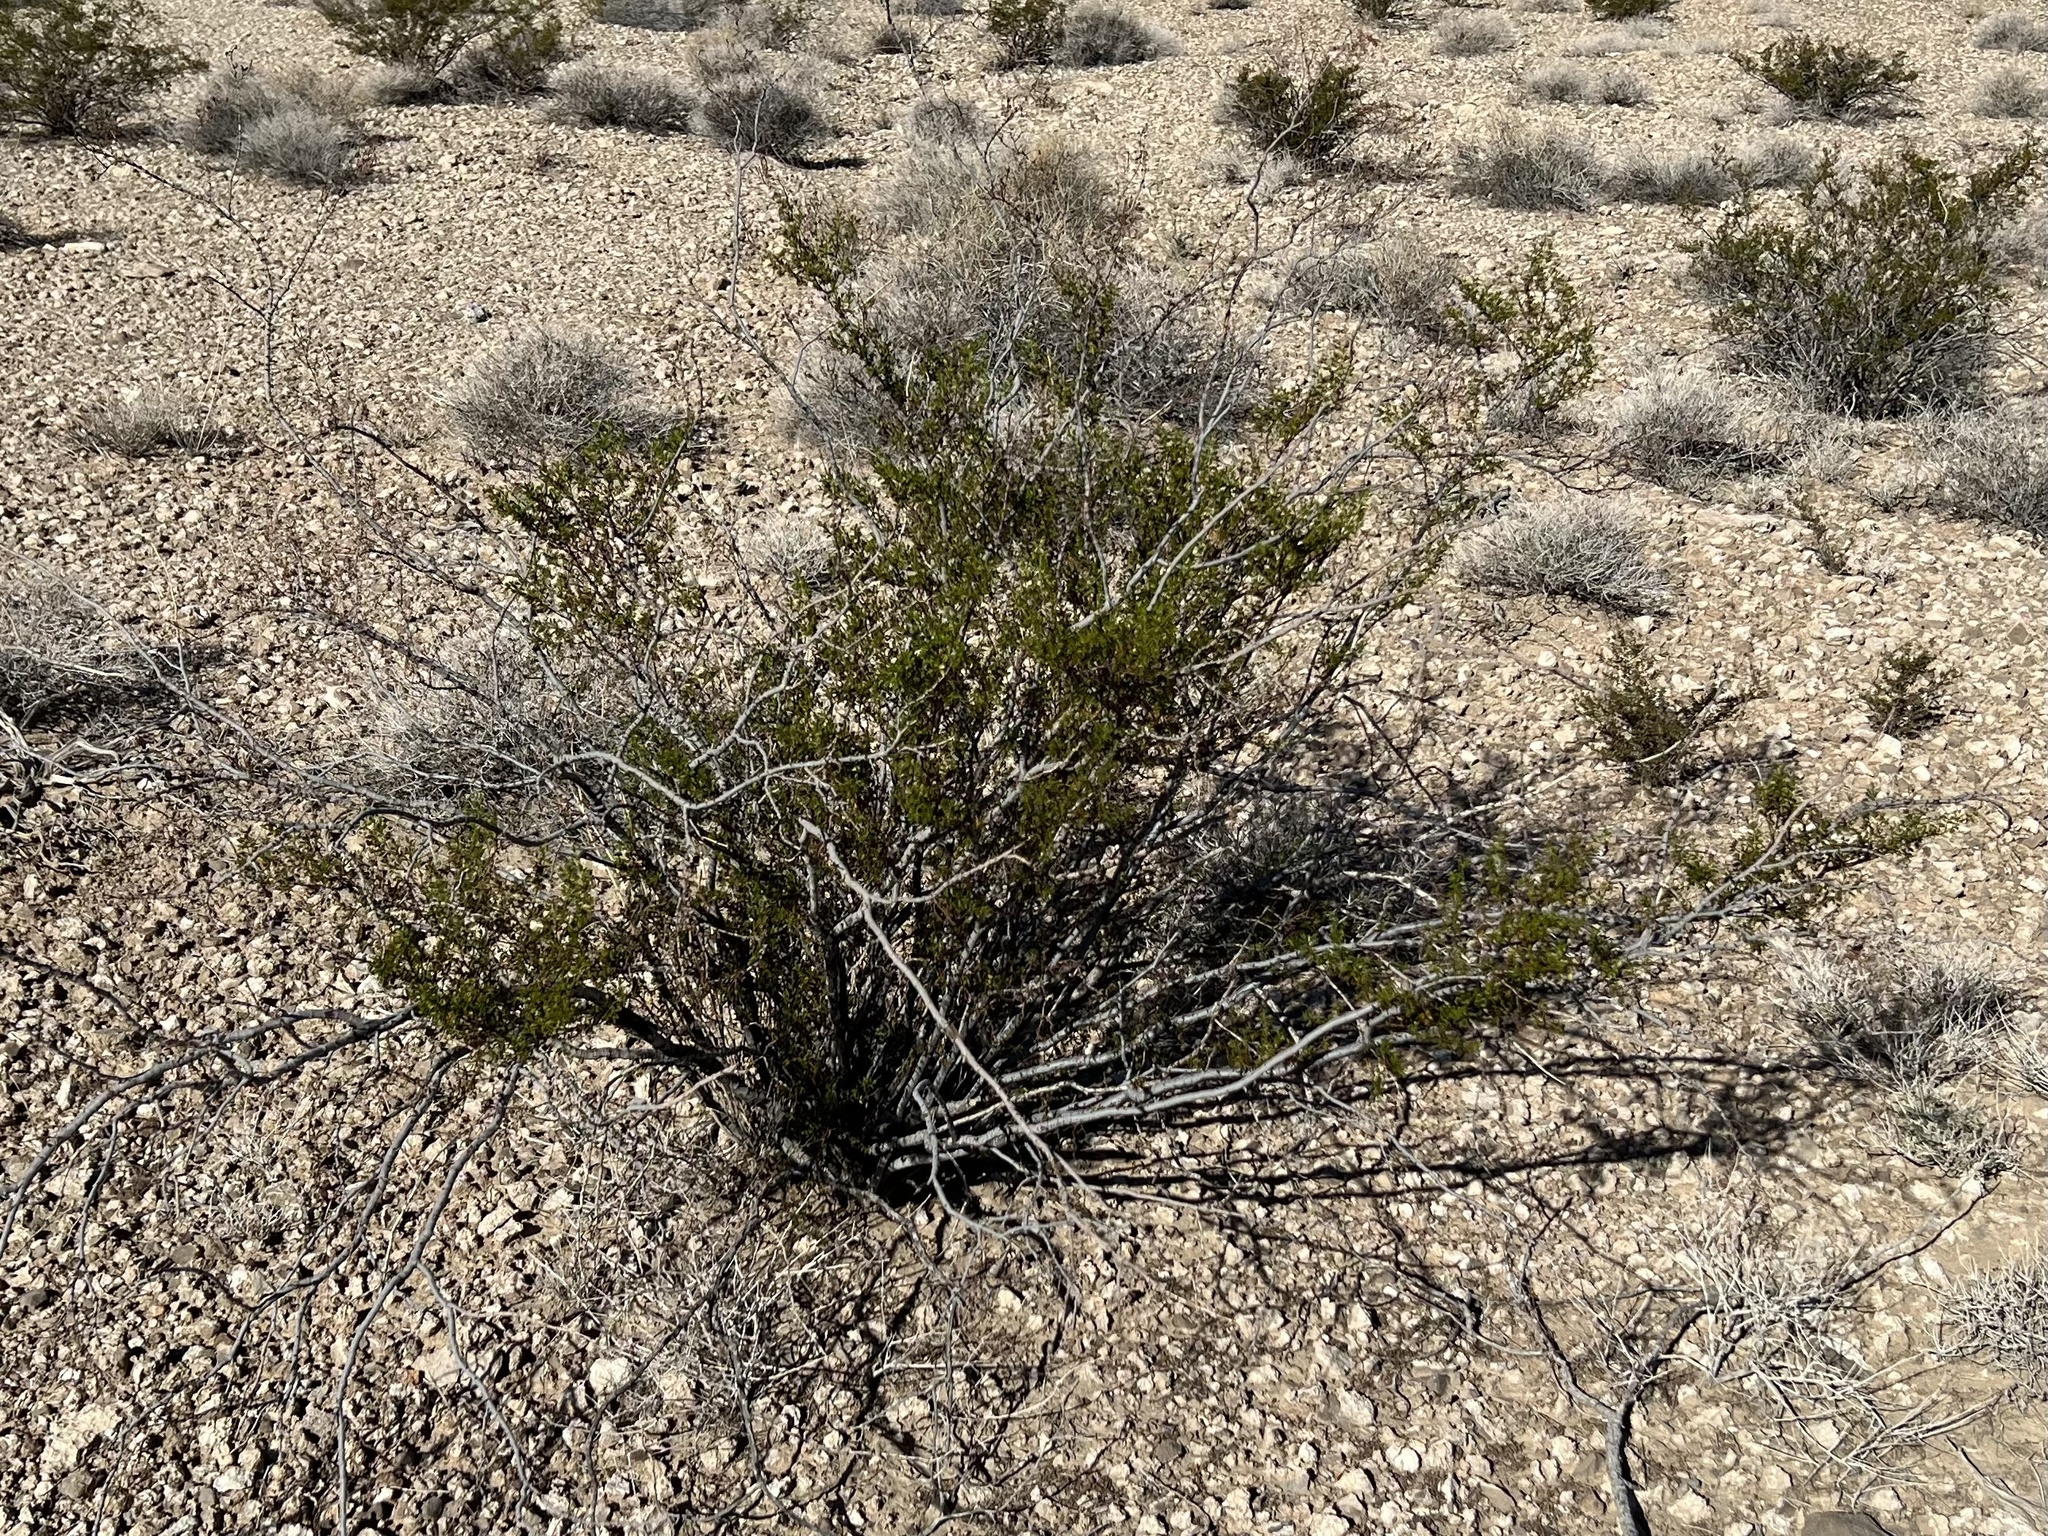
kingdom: Plantae
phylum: Tracheophyta
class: Magnoliopsida
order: Zygophyllales
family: Zygophyllaceae
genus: Larrea
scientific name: Larrea tridentata
